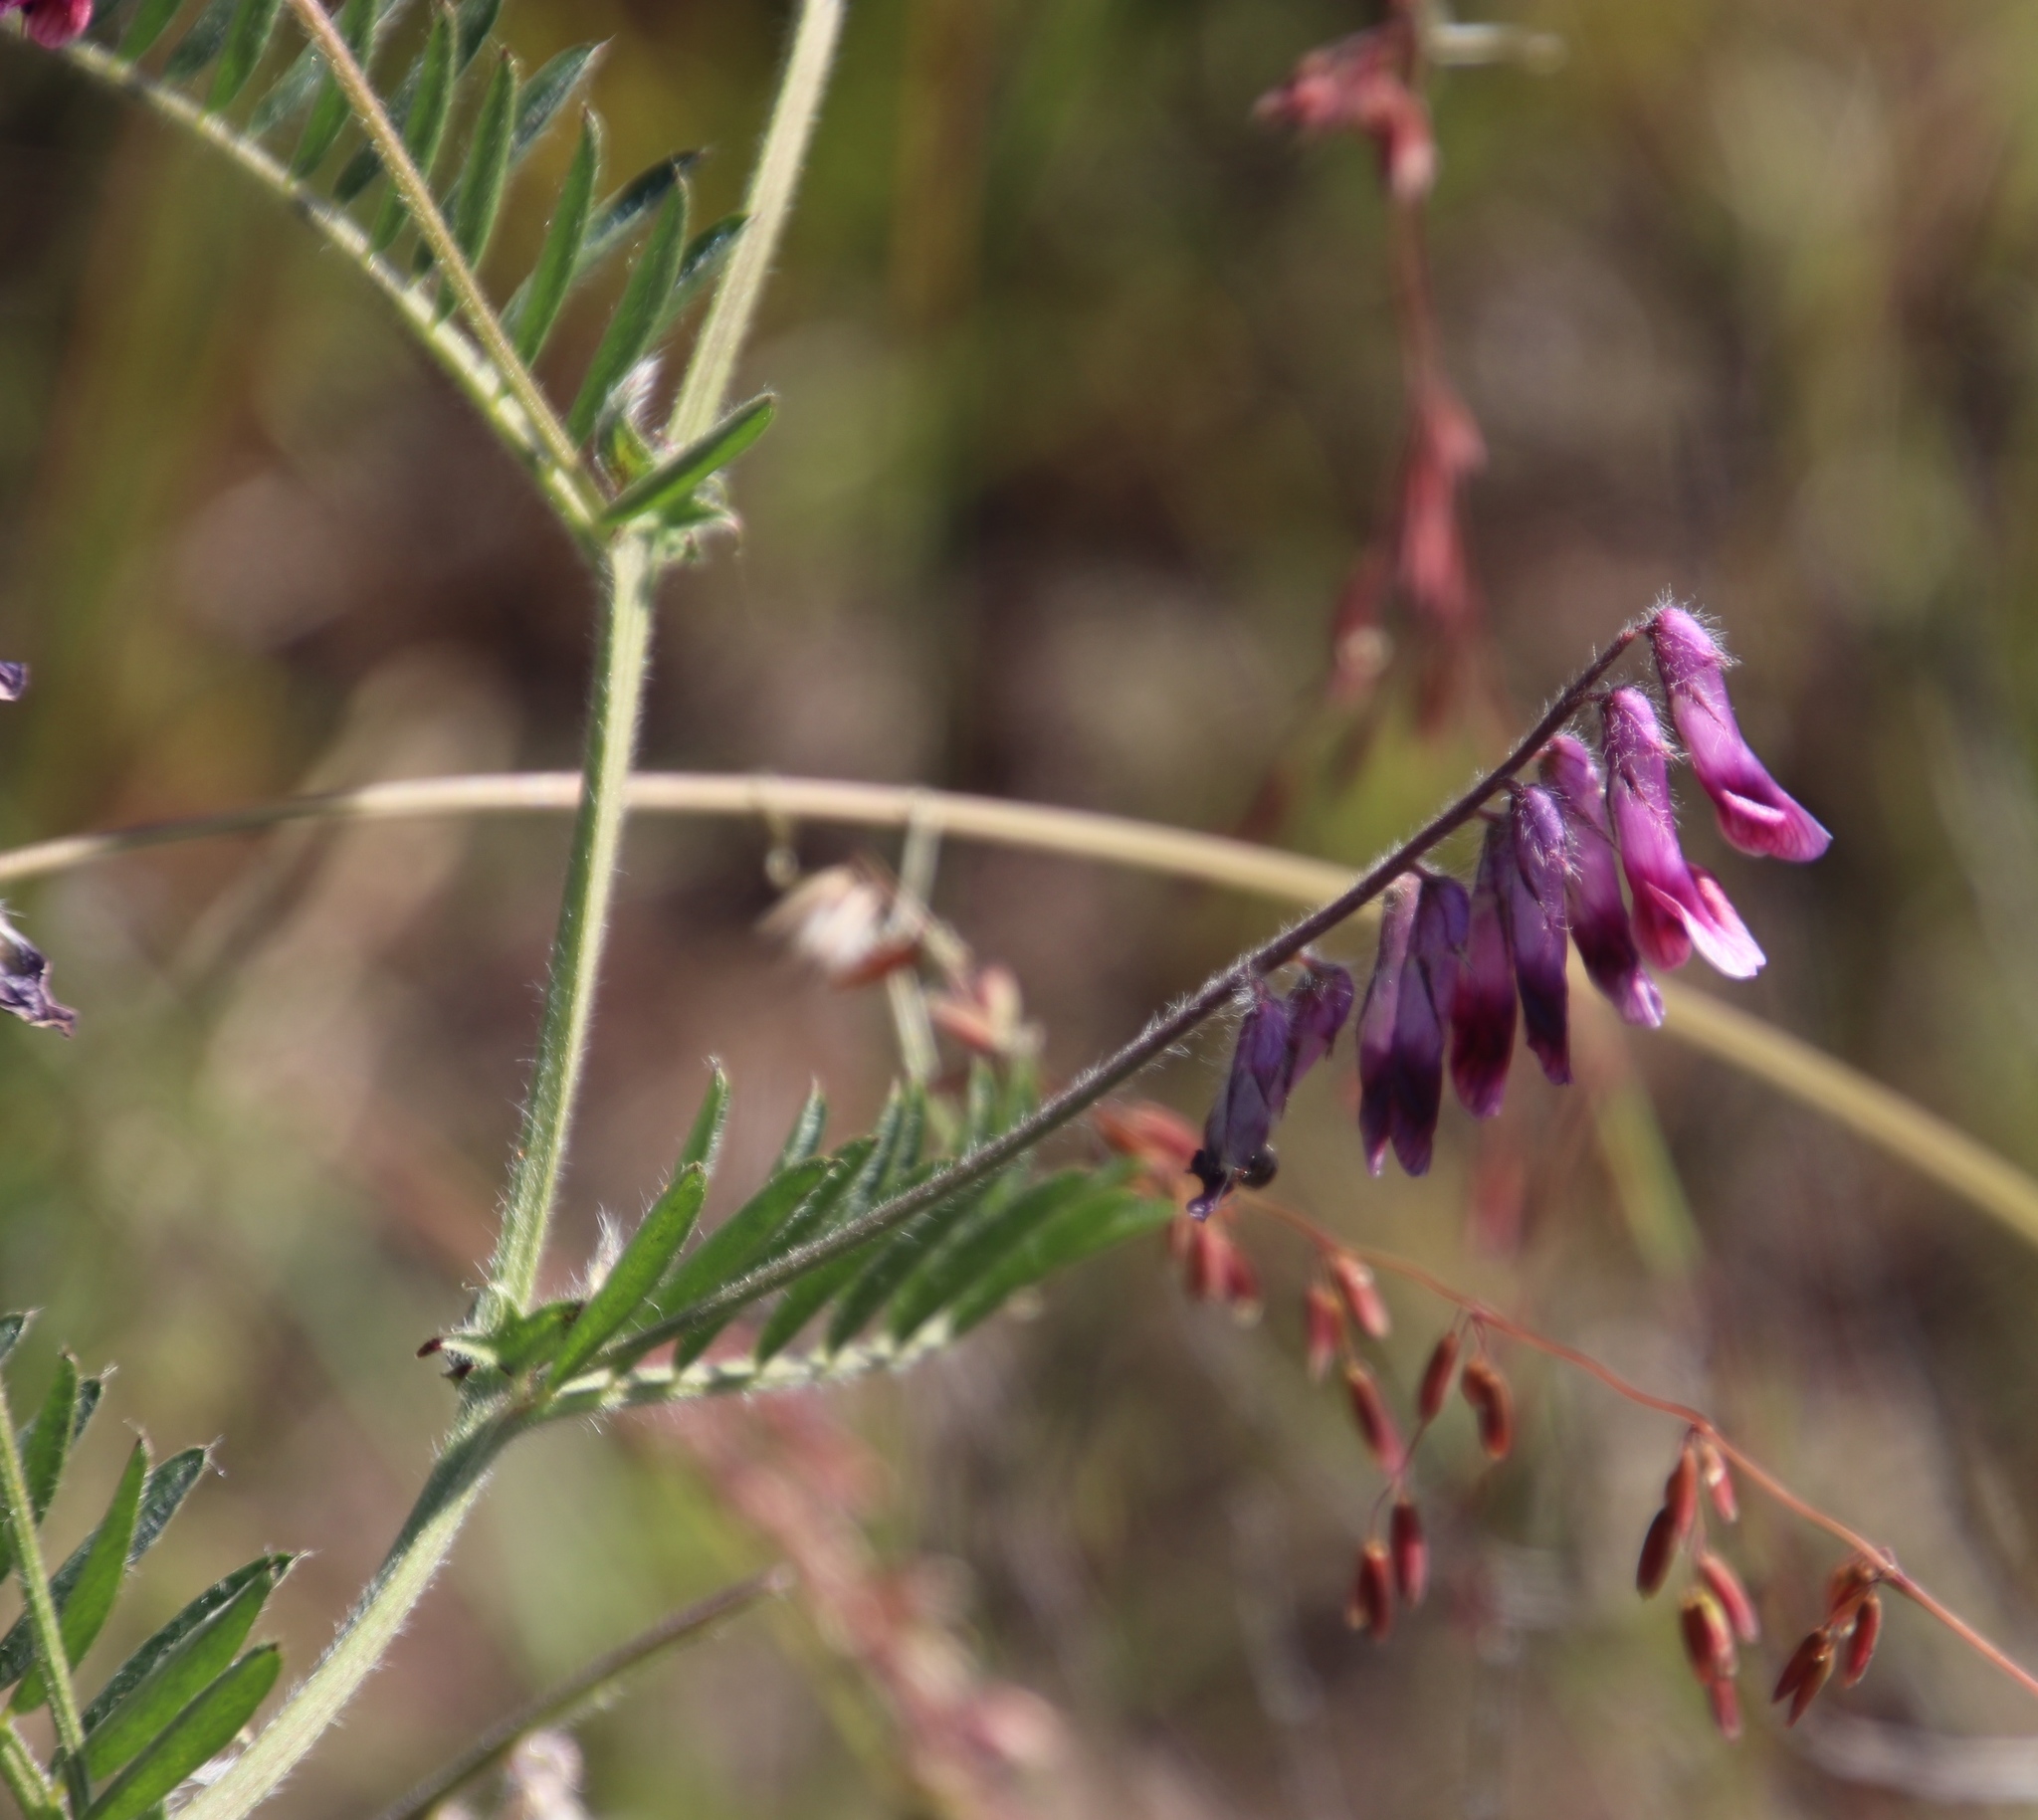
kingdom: Plantae
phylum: Tracheophyta
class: Magnoliopsida
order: Fabales
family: Fabaceae
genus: Vicia
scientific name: Vicia benghalensis
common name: Purple vetch
